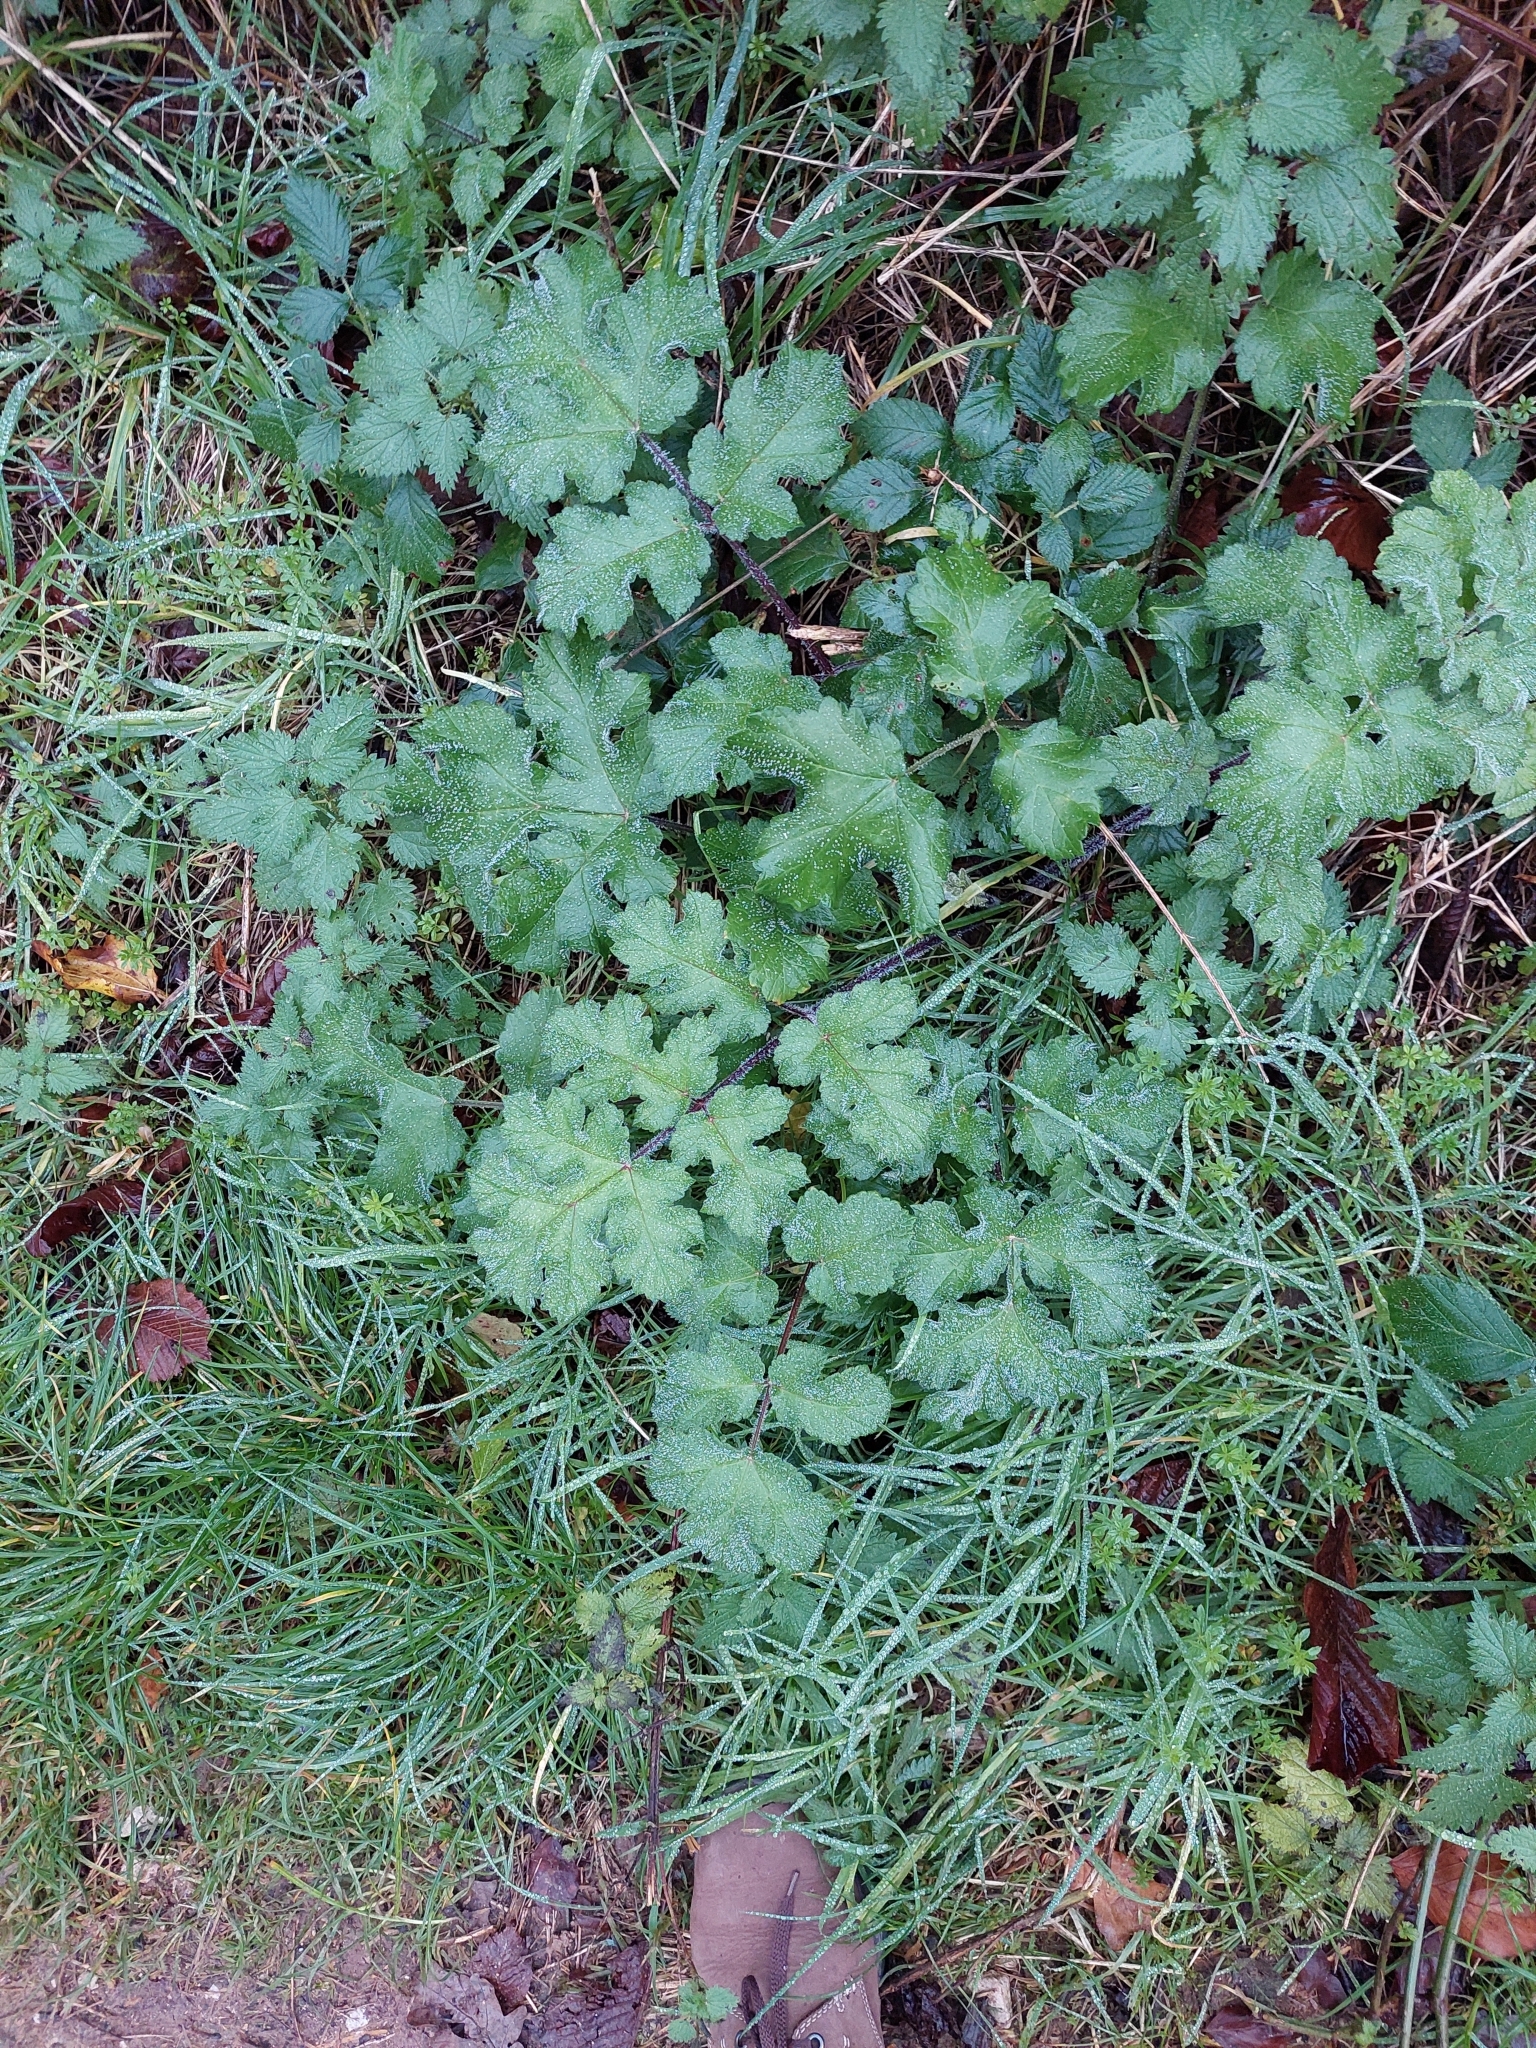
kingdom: Plantae
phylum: Tracheophyta
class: Magnoliopsida
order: Apiales
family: Apiaceae
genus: Heracleum
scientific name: Heracleum sphondylium
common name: Hogweed
